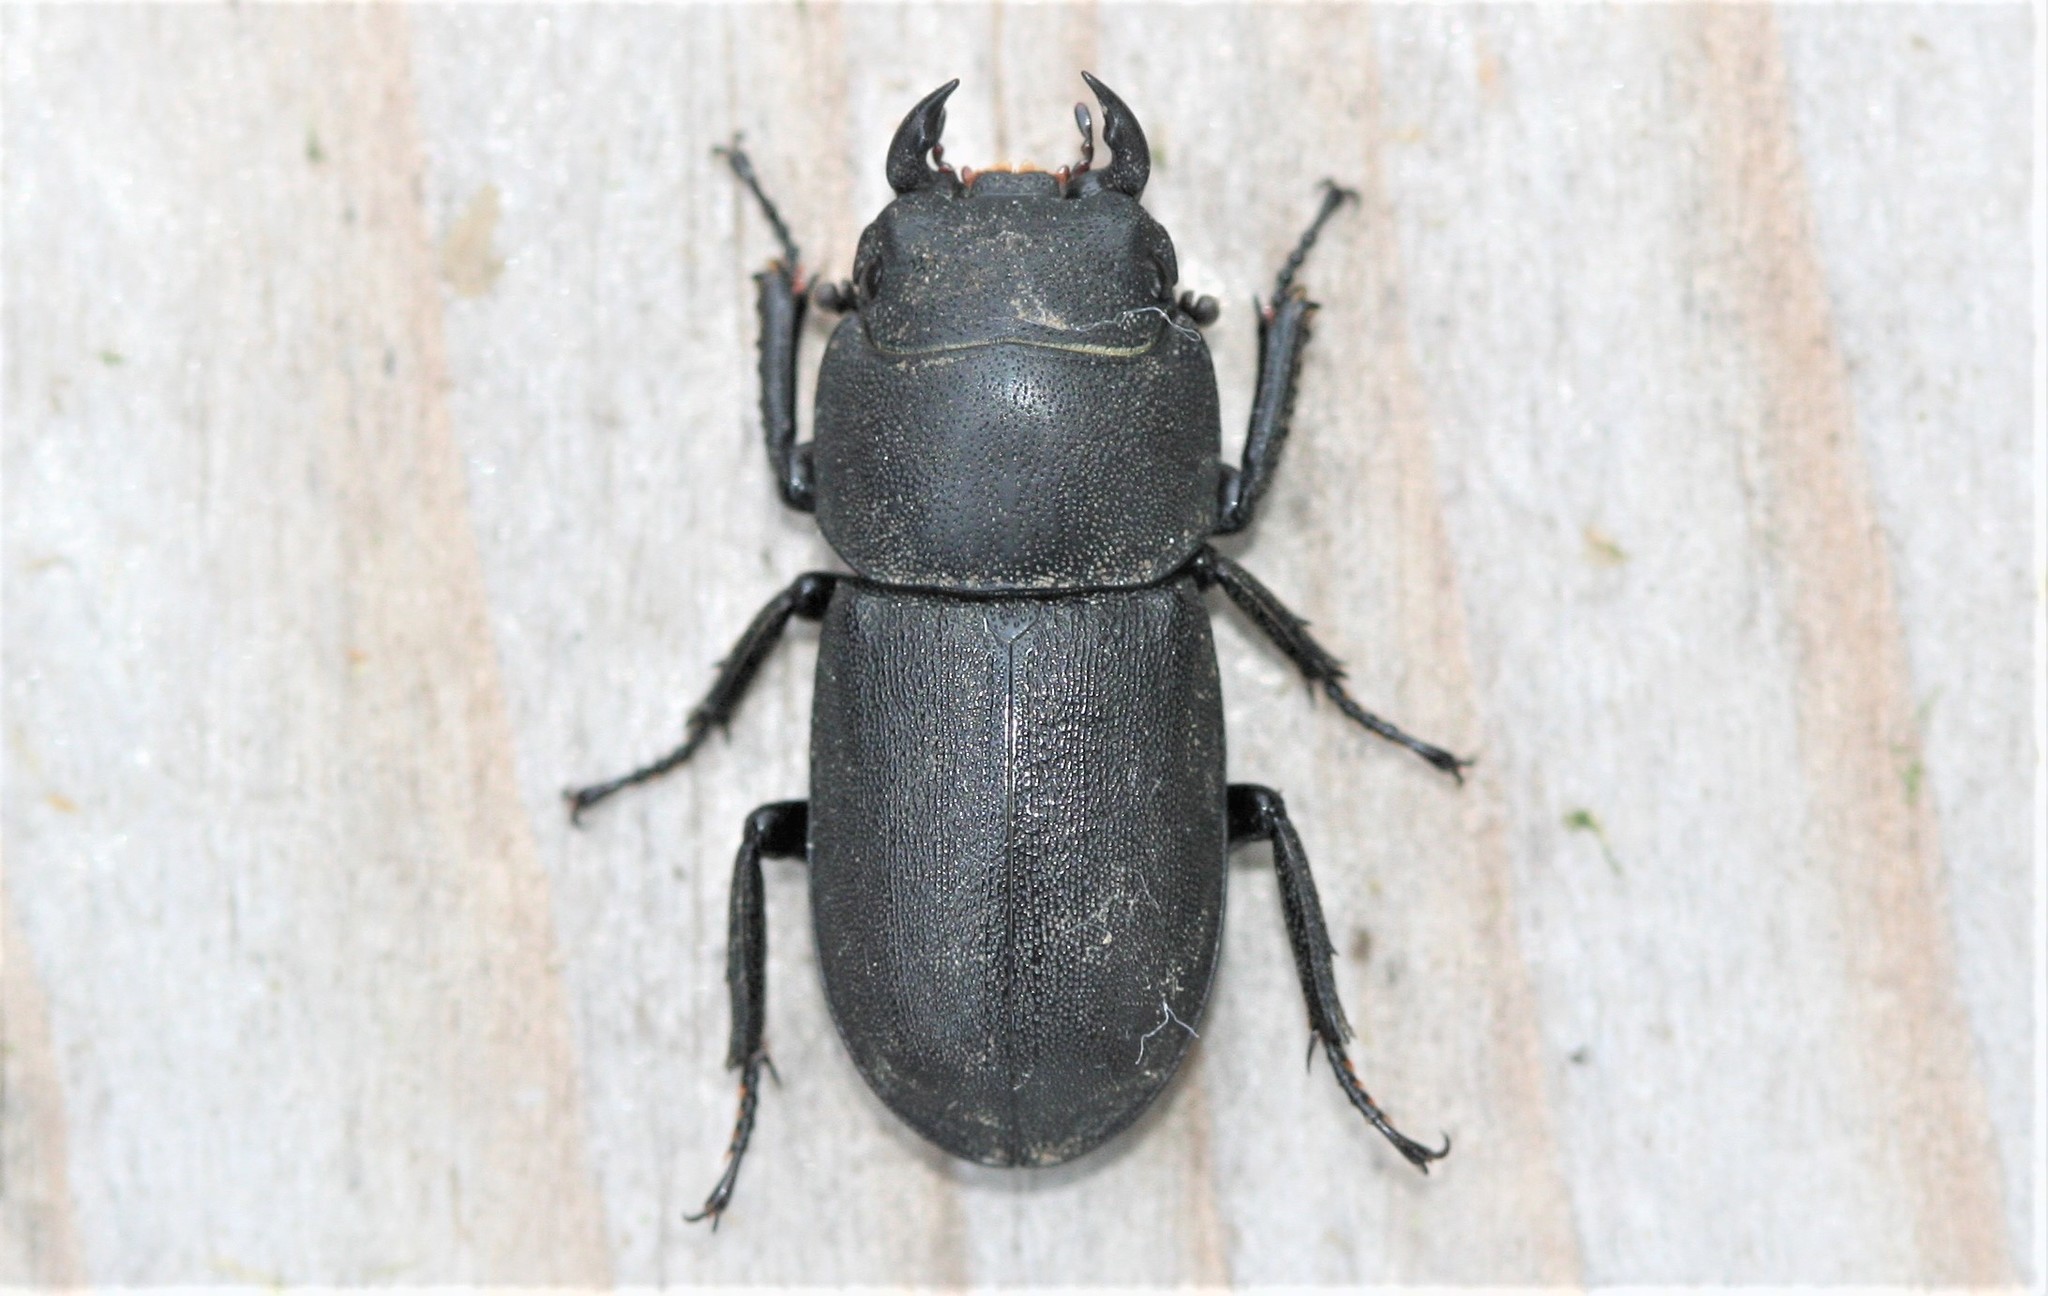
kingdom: Animalia
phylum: Arthropoda
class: Insecta
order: Coleoptera
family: Lucanidae
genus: Dorcus
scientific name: Dorcus parallelipipedus
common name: Lesser stag beetle
